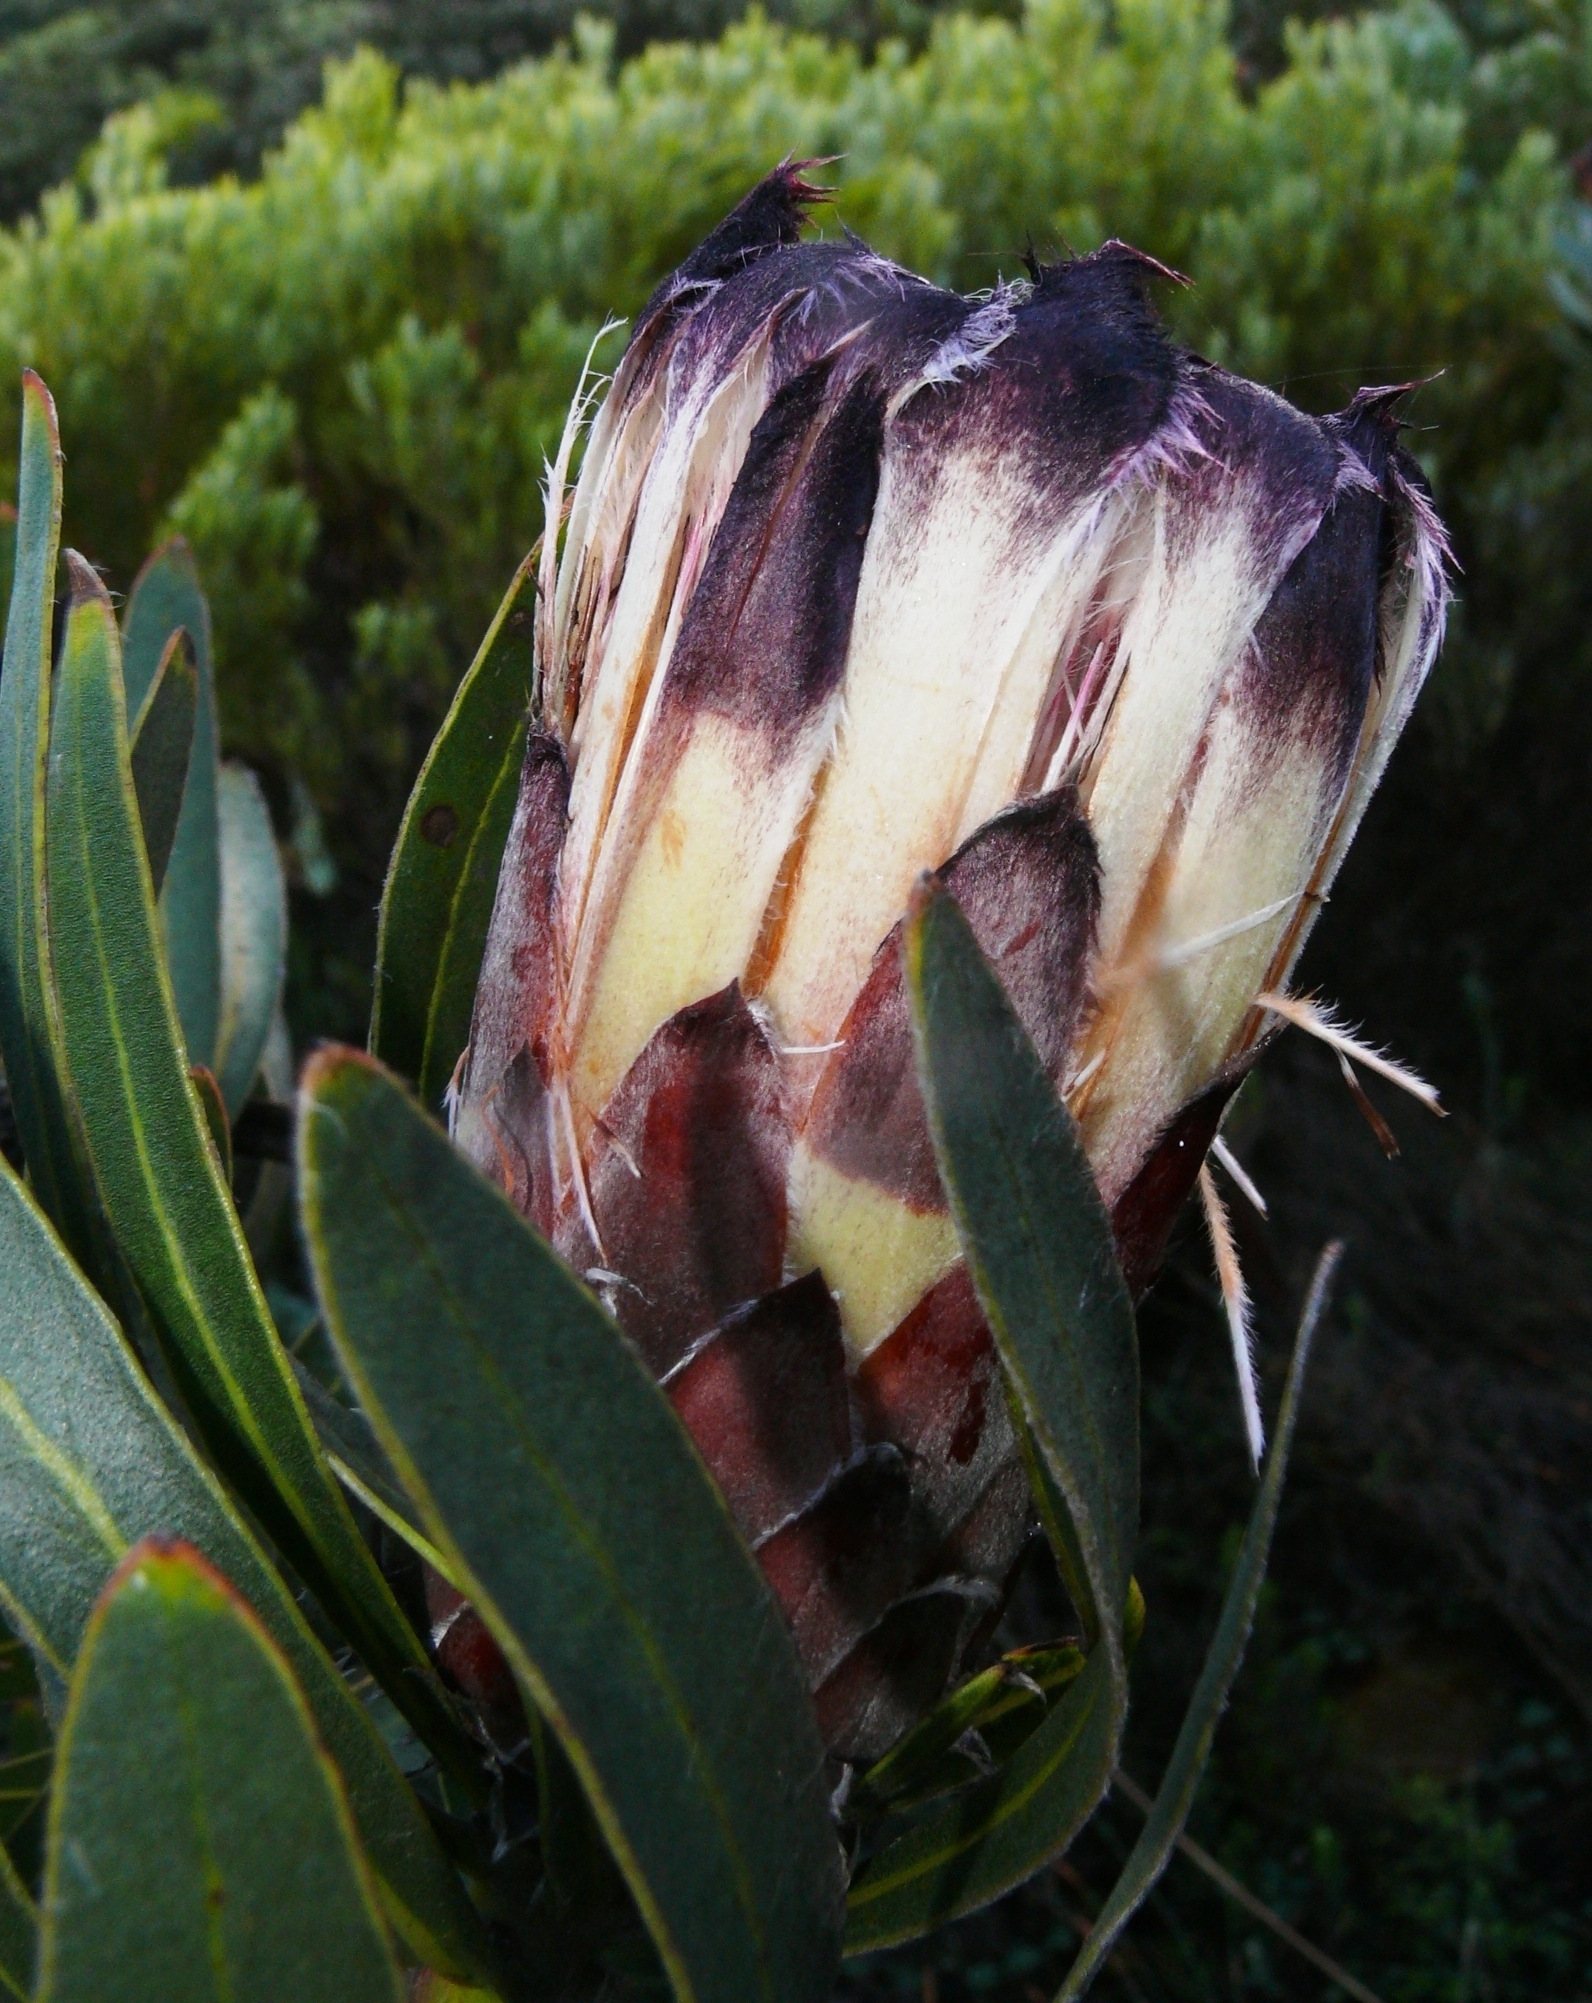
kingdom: Plantae
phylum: Tracheophyta
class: Magnoliopsida
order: Proteales
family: Proteaceae
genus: Protea
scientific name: Protea lepidocarpodendron
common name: Black-bearded protea
